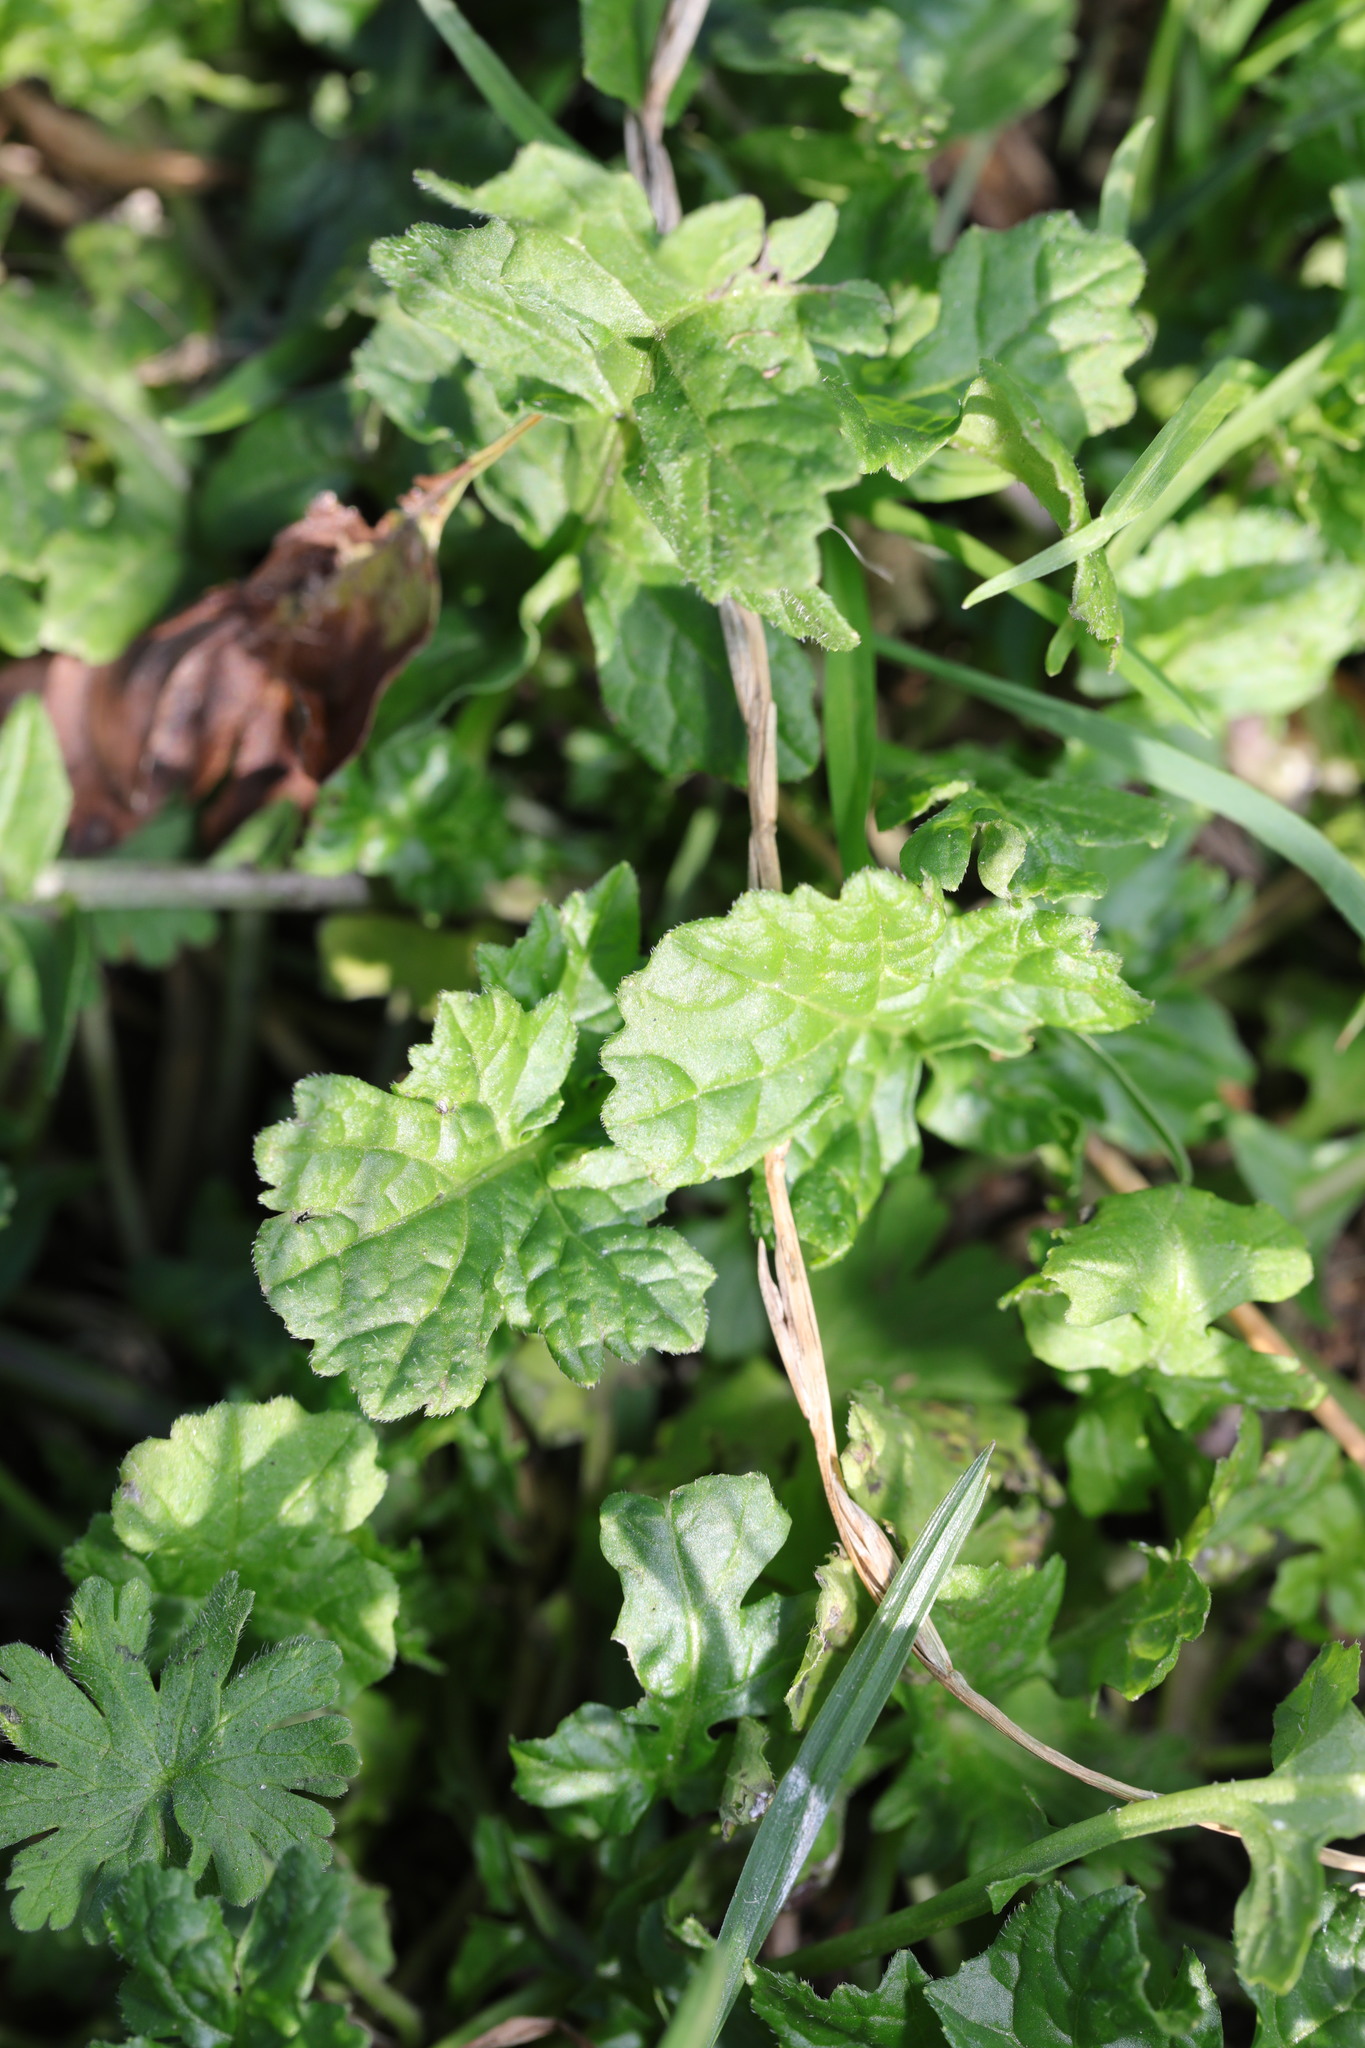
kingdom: Plantae
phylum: Tracheophyta
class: Magnoliopsida
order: Lamiales
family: Lamiaceae
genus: Glechoma
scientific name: Glechoma hederacea
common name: Ground ivy
